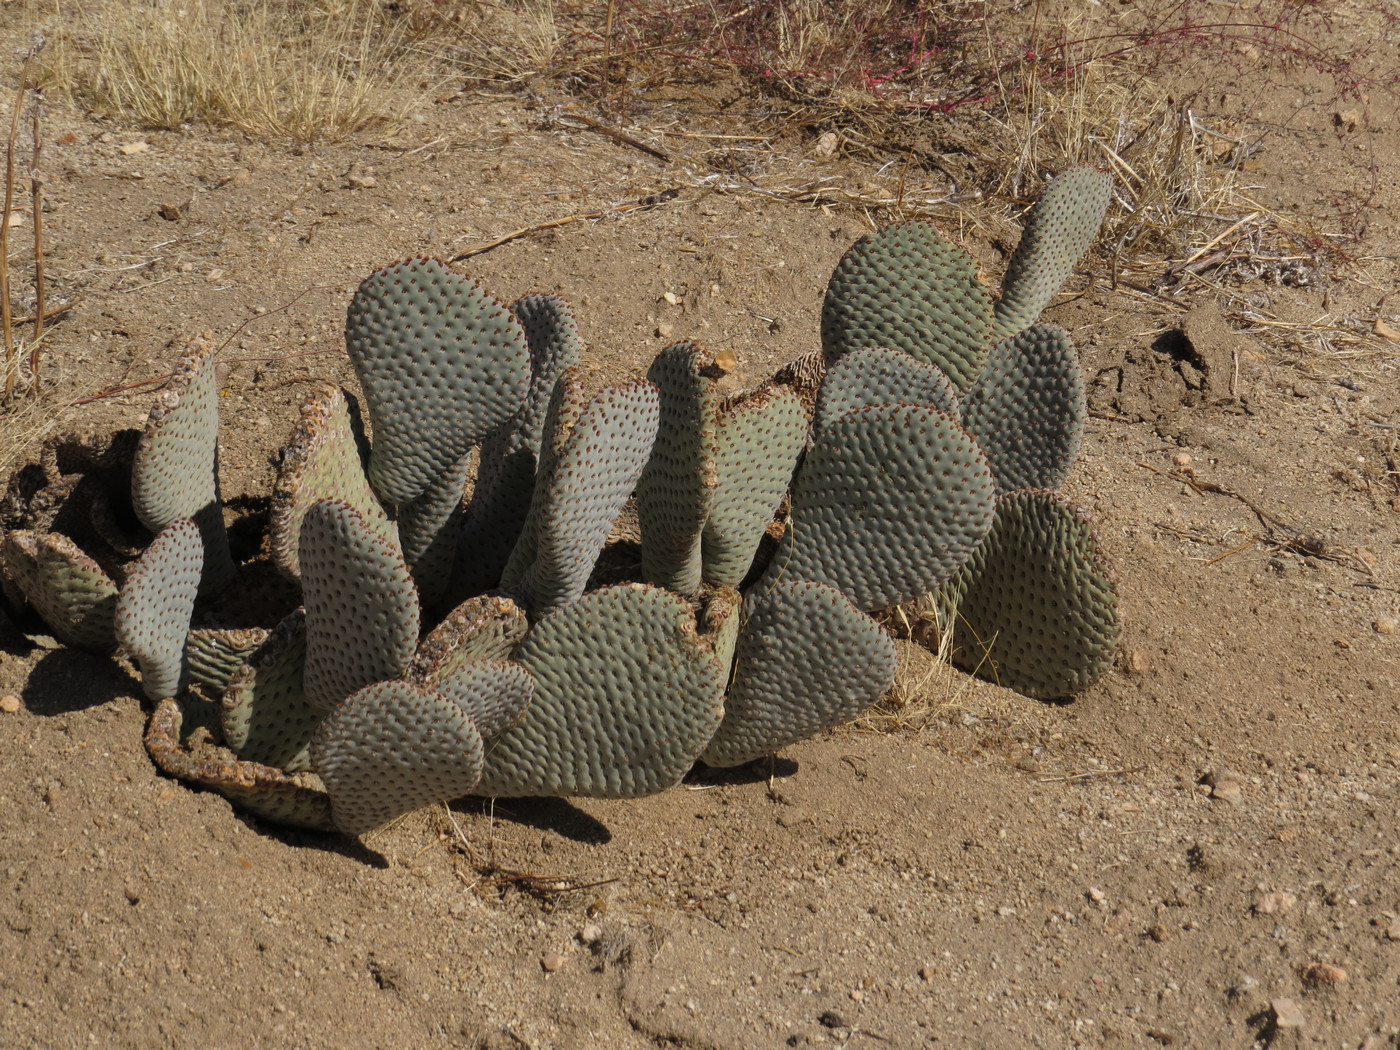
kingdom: Plantae
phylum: Tracheophyta
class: Magnoliopsida
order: Caryophyllales
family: Cactaceae
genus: Opuntia
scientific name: Opuntia basilaris
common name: Beavertail prickly-pear
